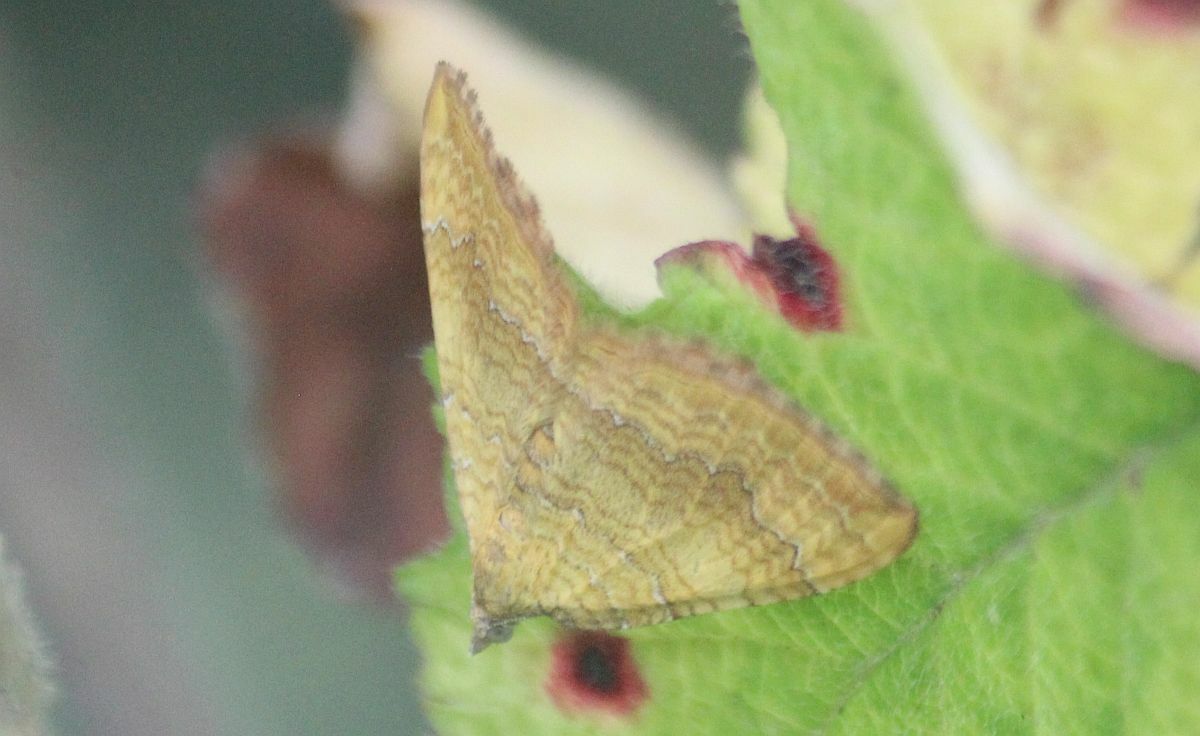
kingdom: Animalia
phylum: Arthropoda
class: Insecta
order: Lepidoptera
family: Geometridae
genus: Camptogramma
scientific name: Camptogramma bilineata
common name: Yellow shell
